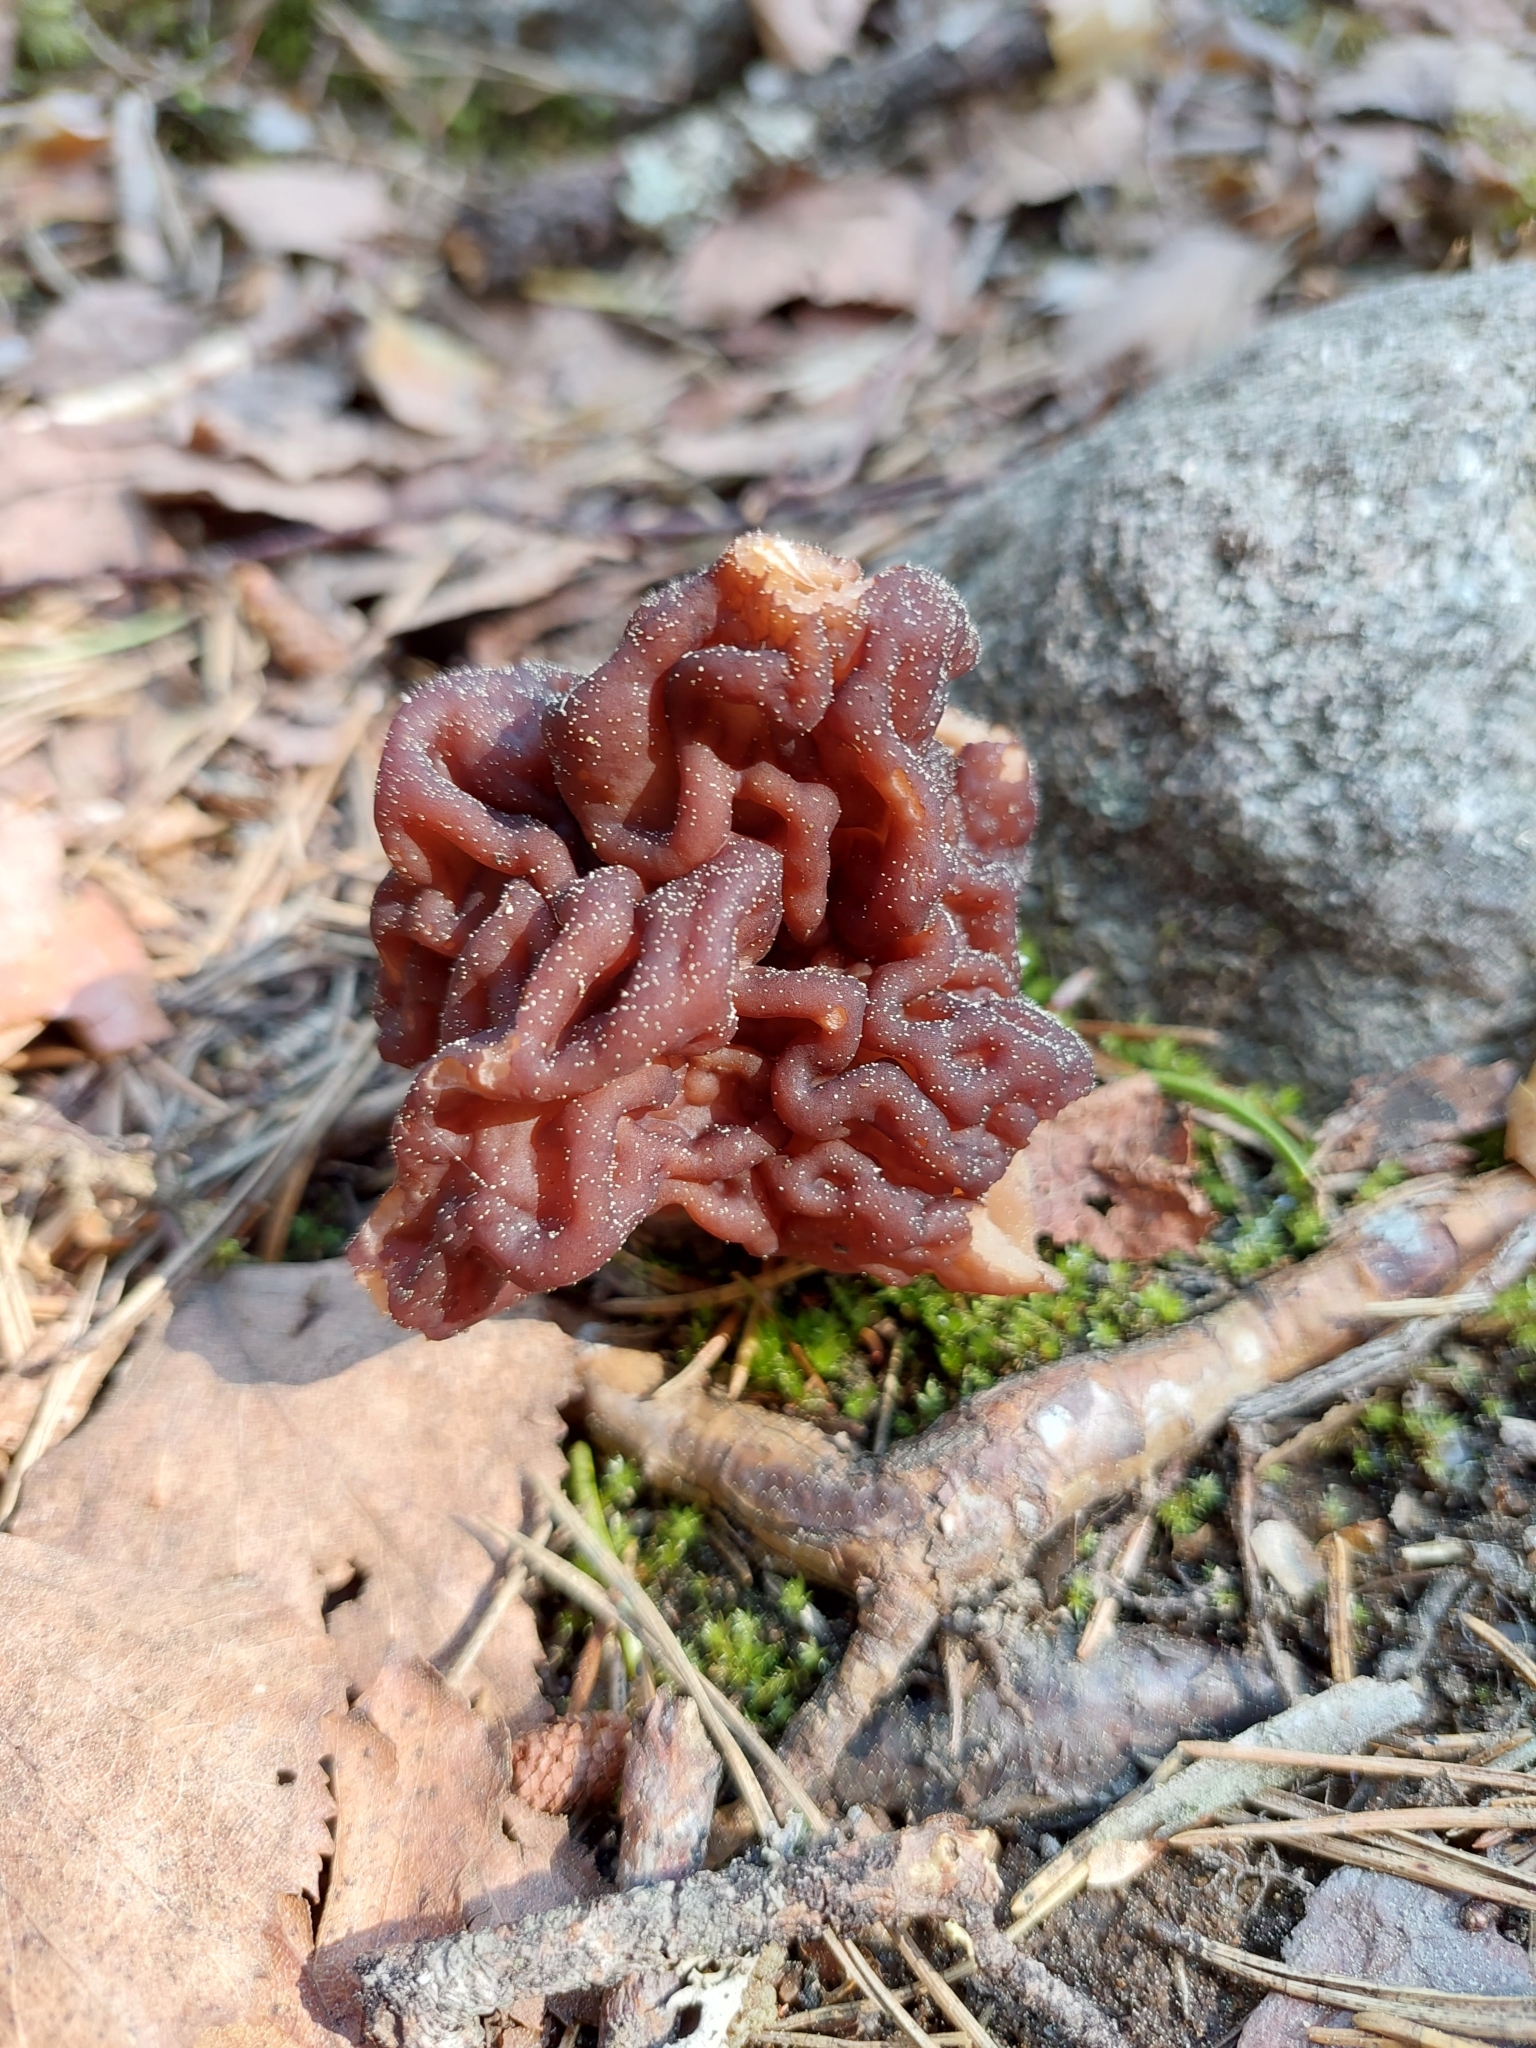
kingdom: Fungi
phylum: Ascomycota
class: Pezizomycetes
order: Pezizales
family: Discinaceae
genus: Gyromitra
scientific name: Gyromitra esculenta
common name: False morel
